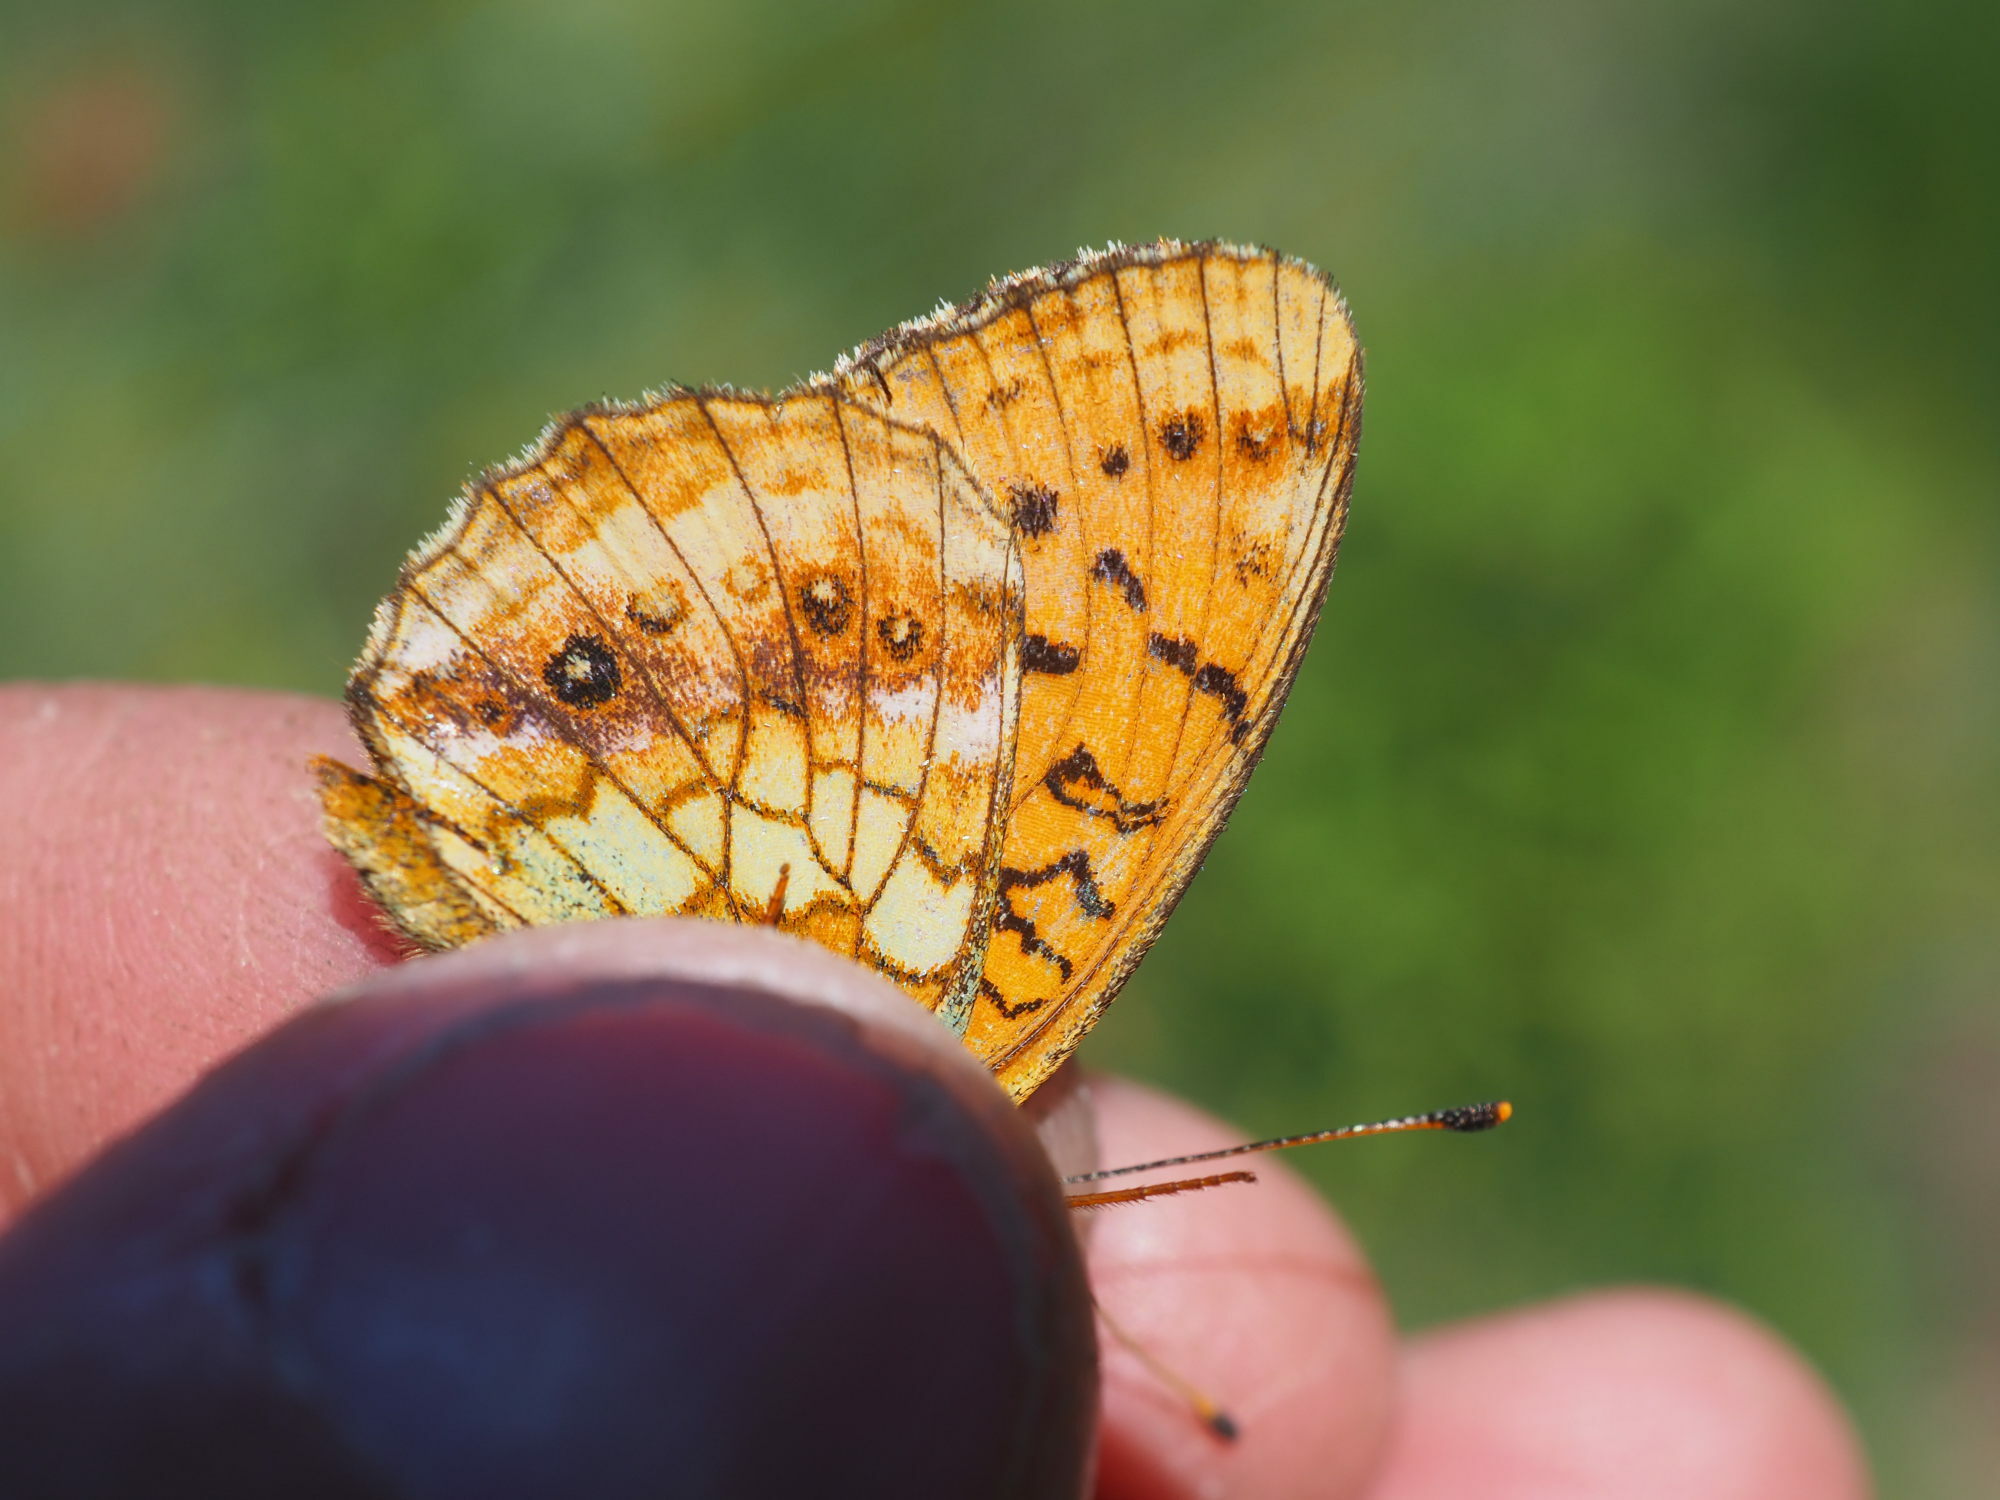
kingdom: Animalia
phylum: Arthropoda
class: Insecta
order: Lepidoptera
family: Nymphalidae
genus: Brenthis
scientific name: Brenthis ino
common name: Lesser marbled fritillary
